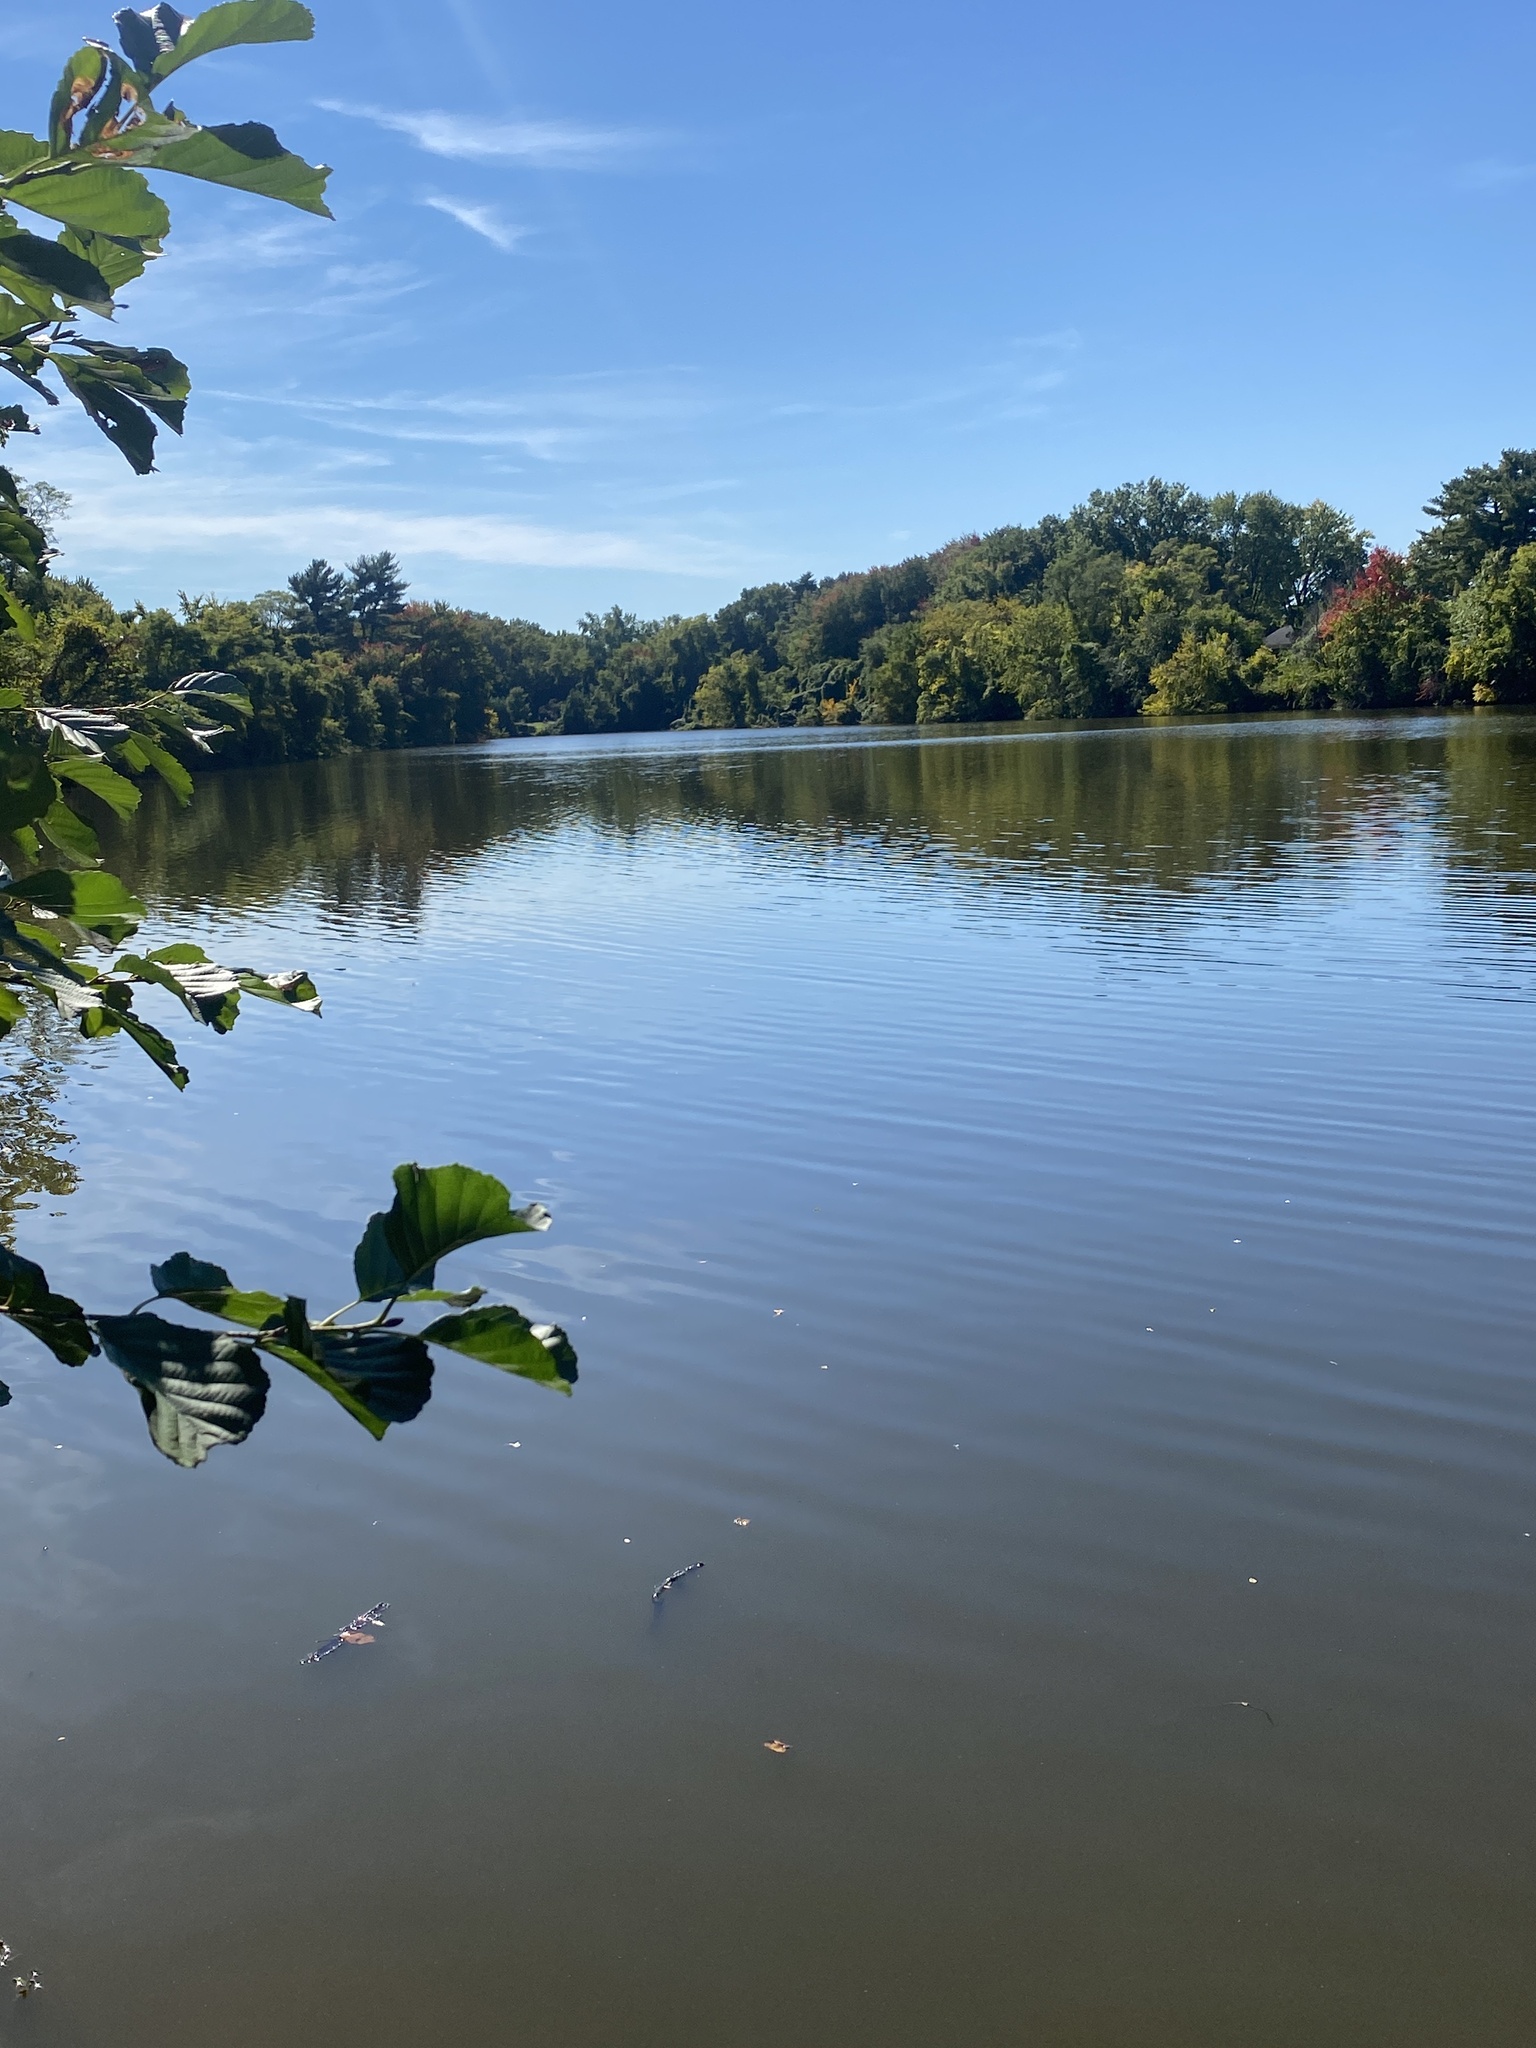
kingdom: Plantae
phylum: Tracheophyta
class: Magnoliopsida
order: Geraniales
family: Geraniaceae
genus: Erodium
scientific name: Erodium cicutarium
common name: Common stork's-bill
